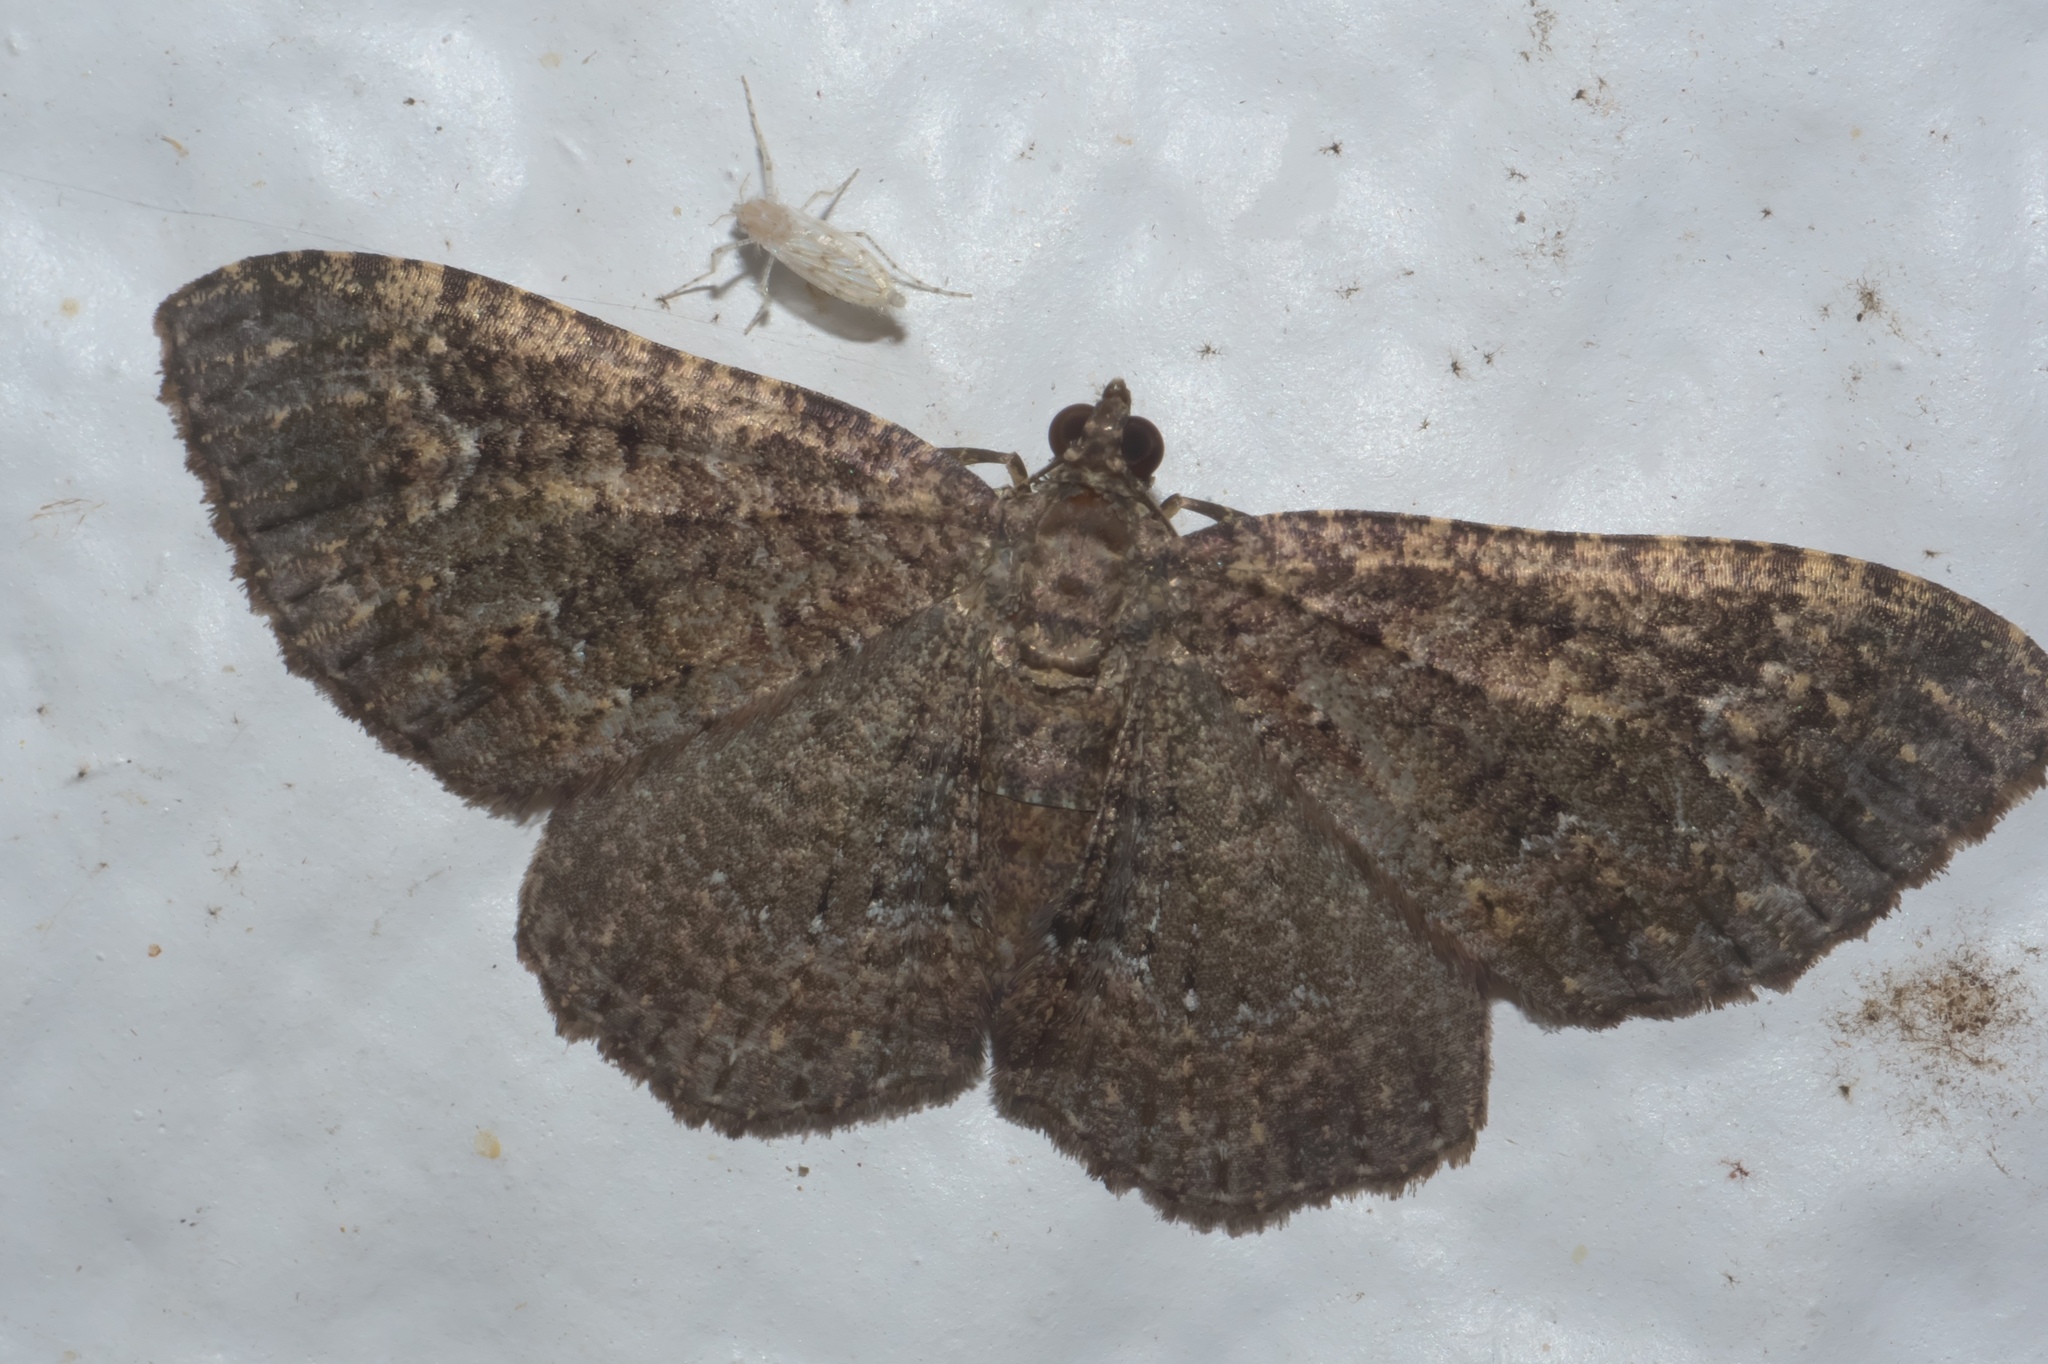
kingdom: Animalia
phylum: Arthropoda
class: Insecta
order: Lepidoptera
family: Geometridae
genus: Disclisioprocta
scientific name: Disclisioprocta stellata
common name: Somber carpet
